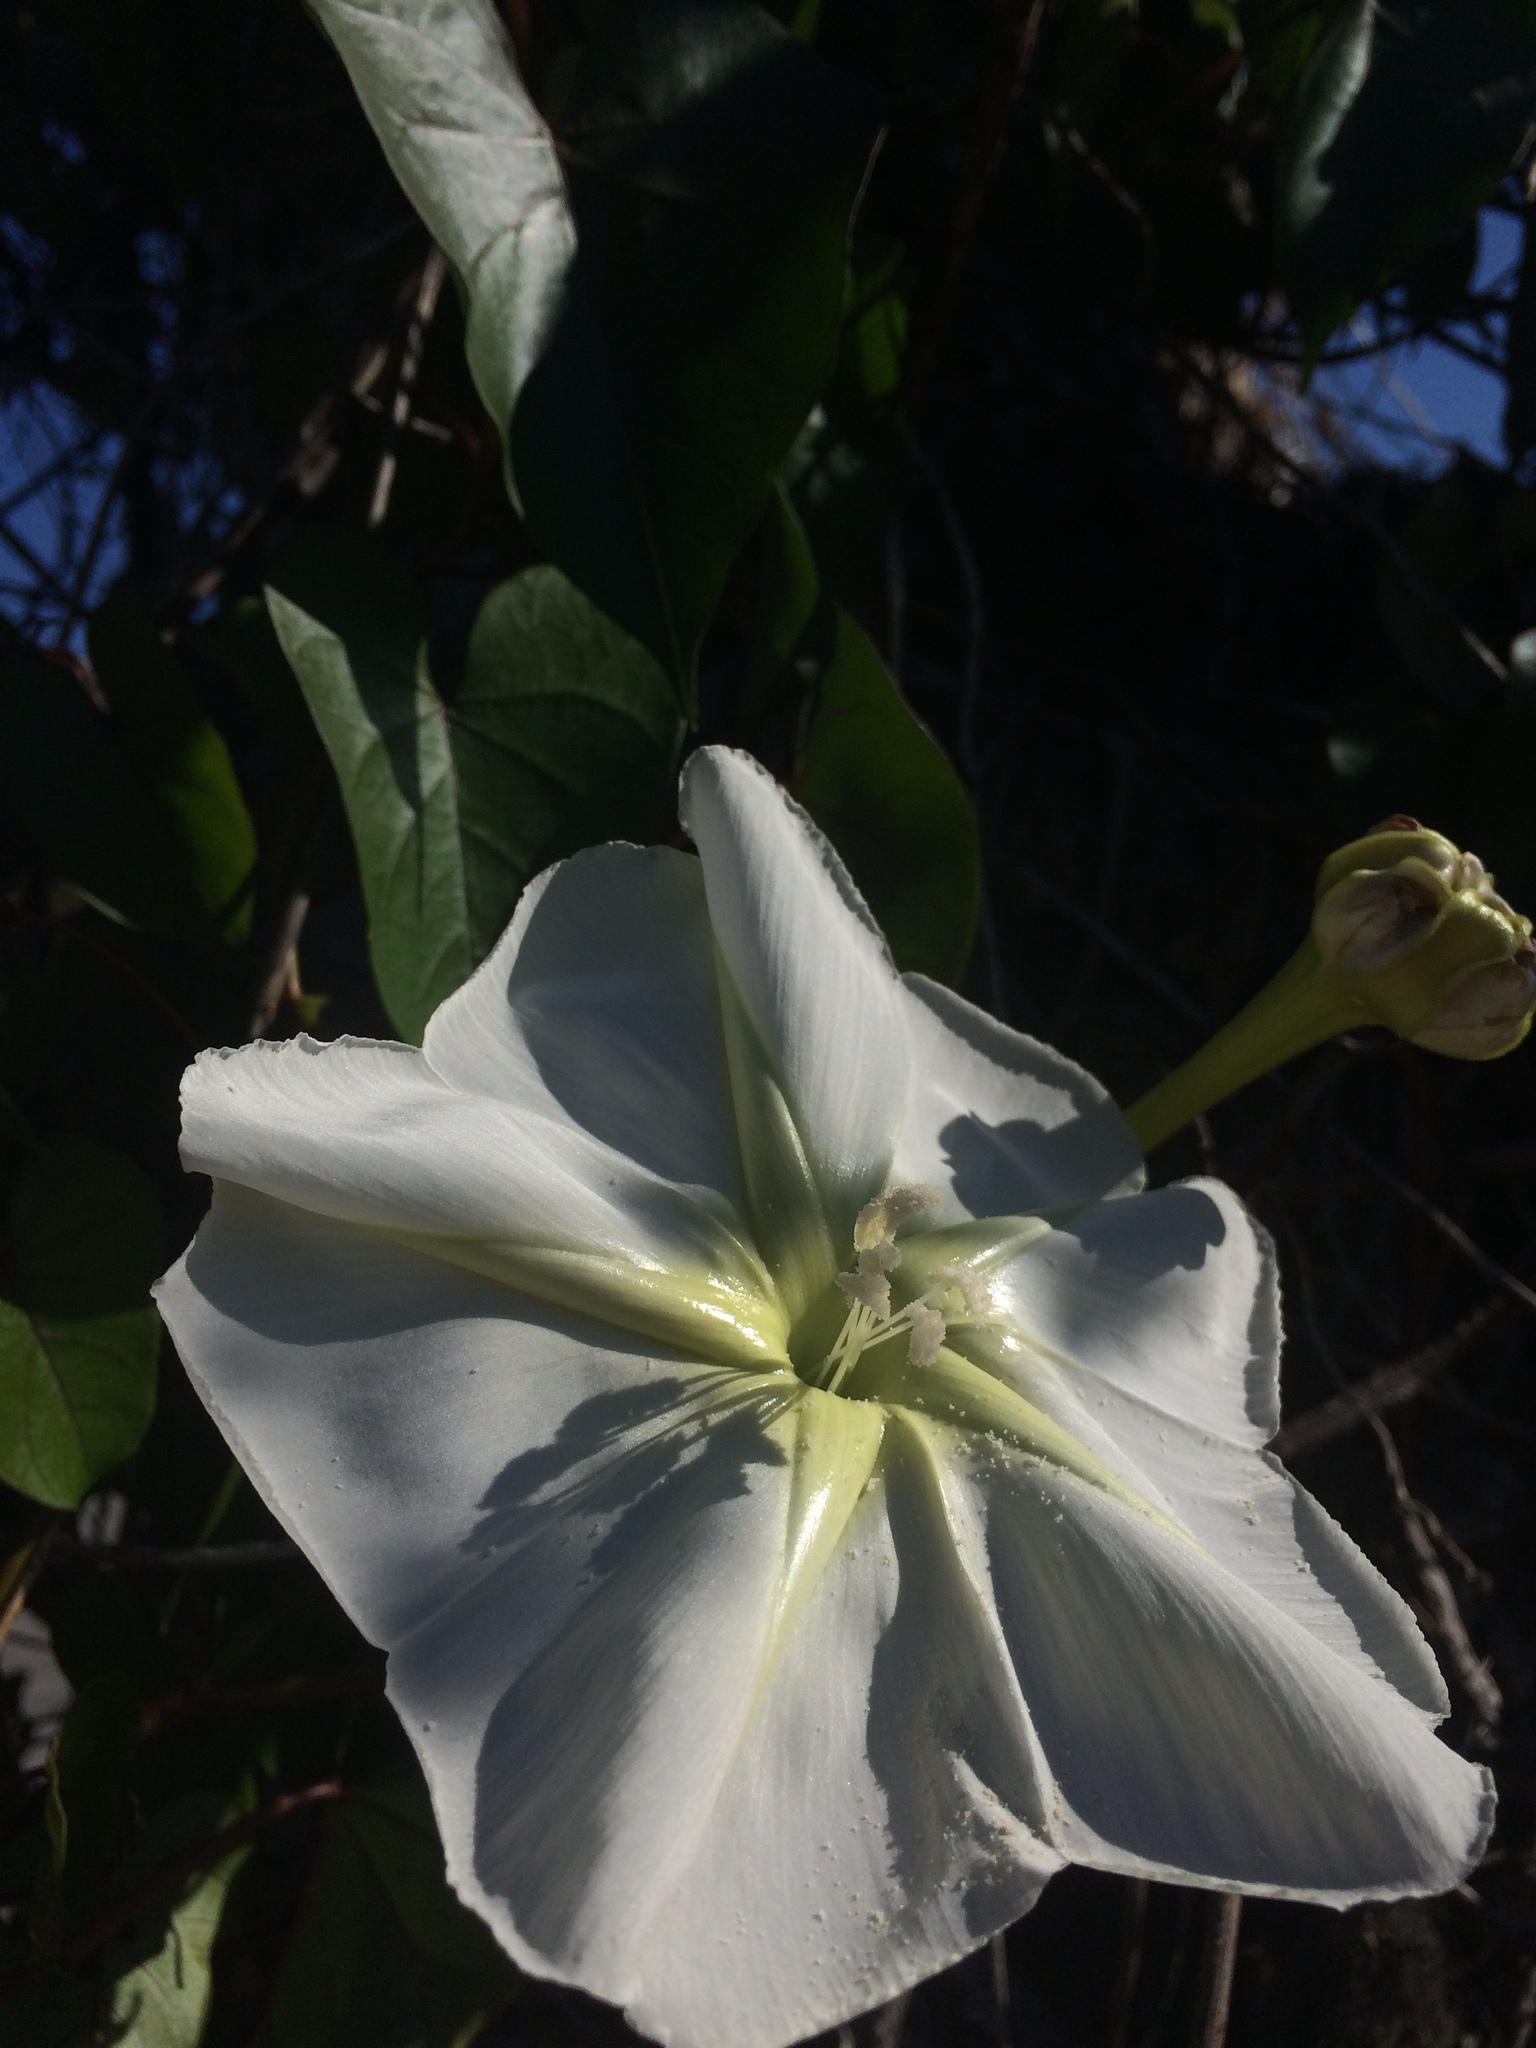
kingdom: Plantae
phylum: Tracheophyta
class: Magnoliopsida
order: Solanales
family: Convolvulaceae
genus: Ipomoea
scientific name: Ipomoea alba
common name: Moonflower
